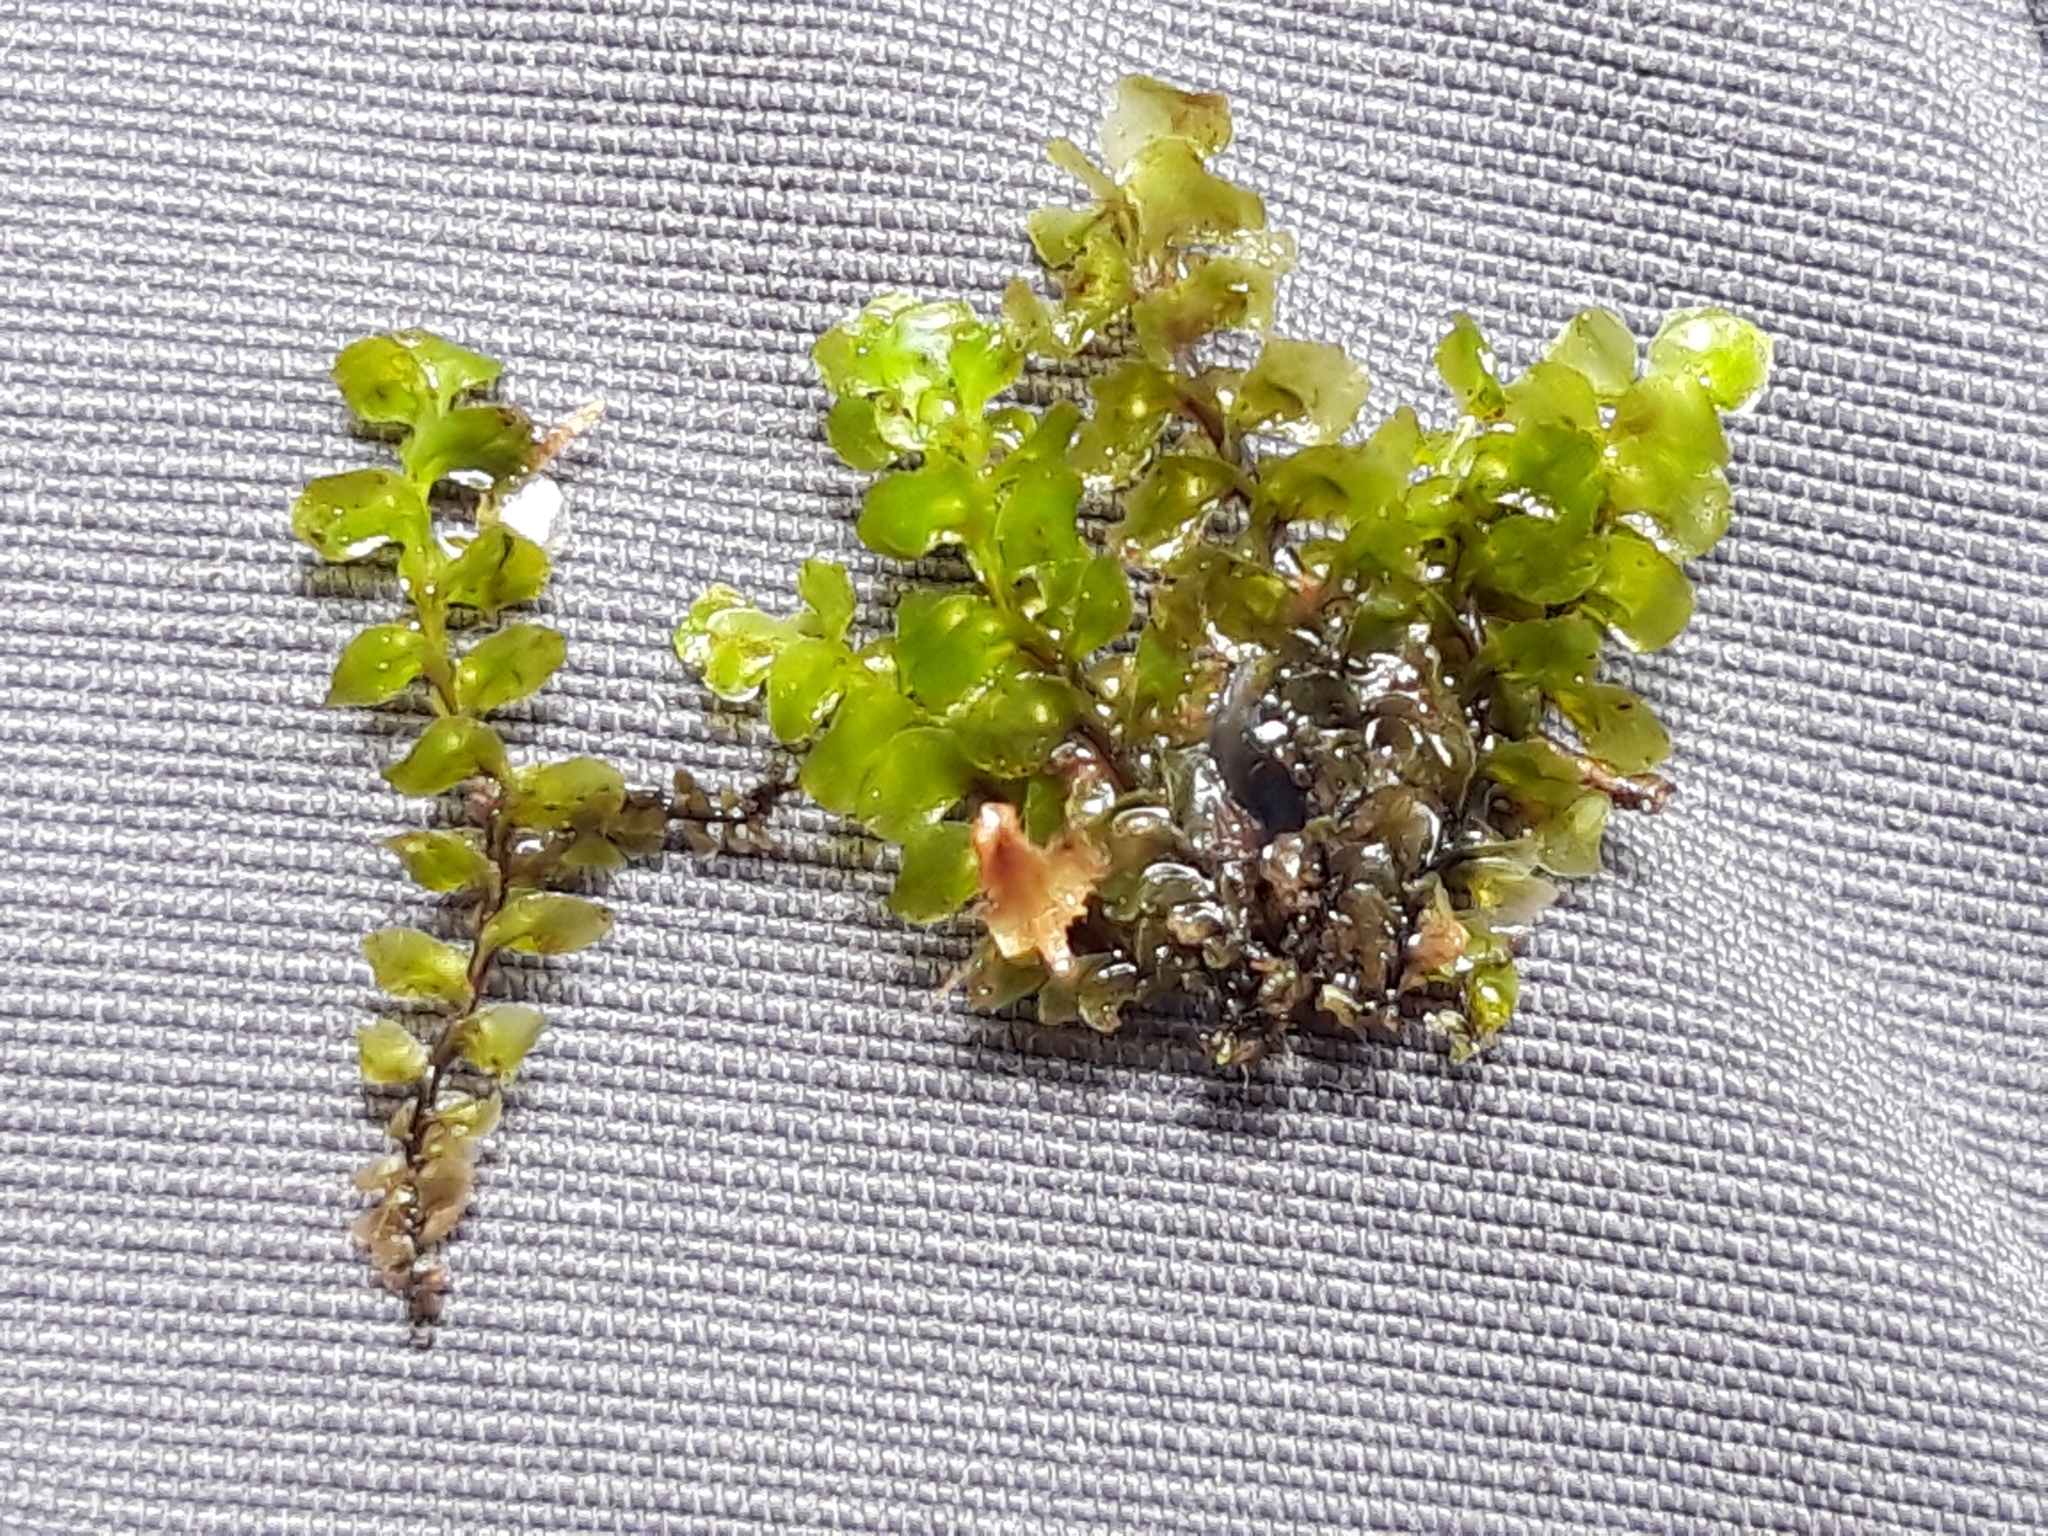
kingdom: Plantae
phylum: Marchantiophyta
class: Jungermanniopsida
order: Jungermanniales
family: Scapaniaceae
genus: Scapania
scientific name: Scapania undulata
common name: Water earwort
